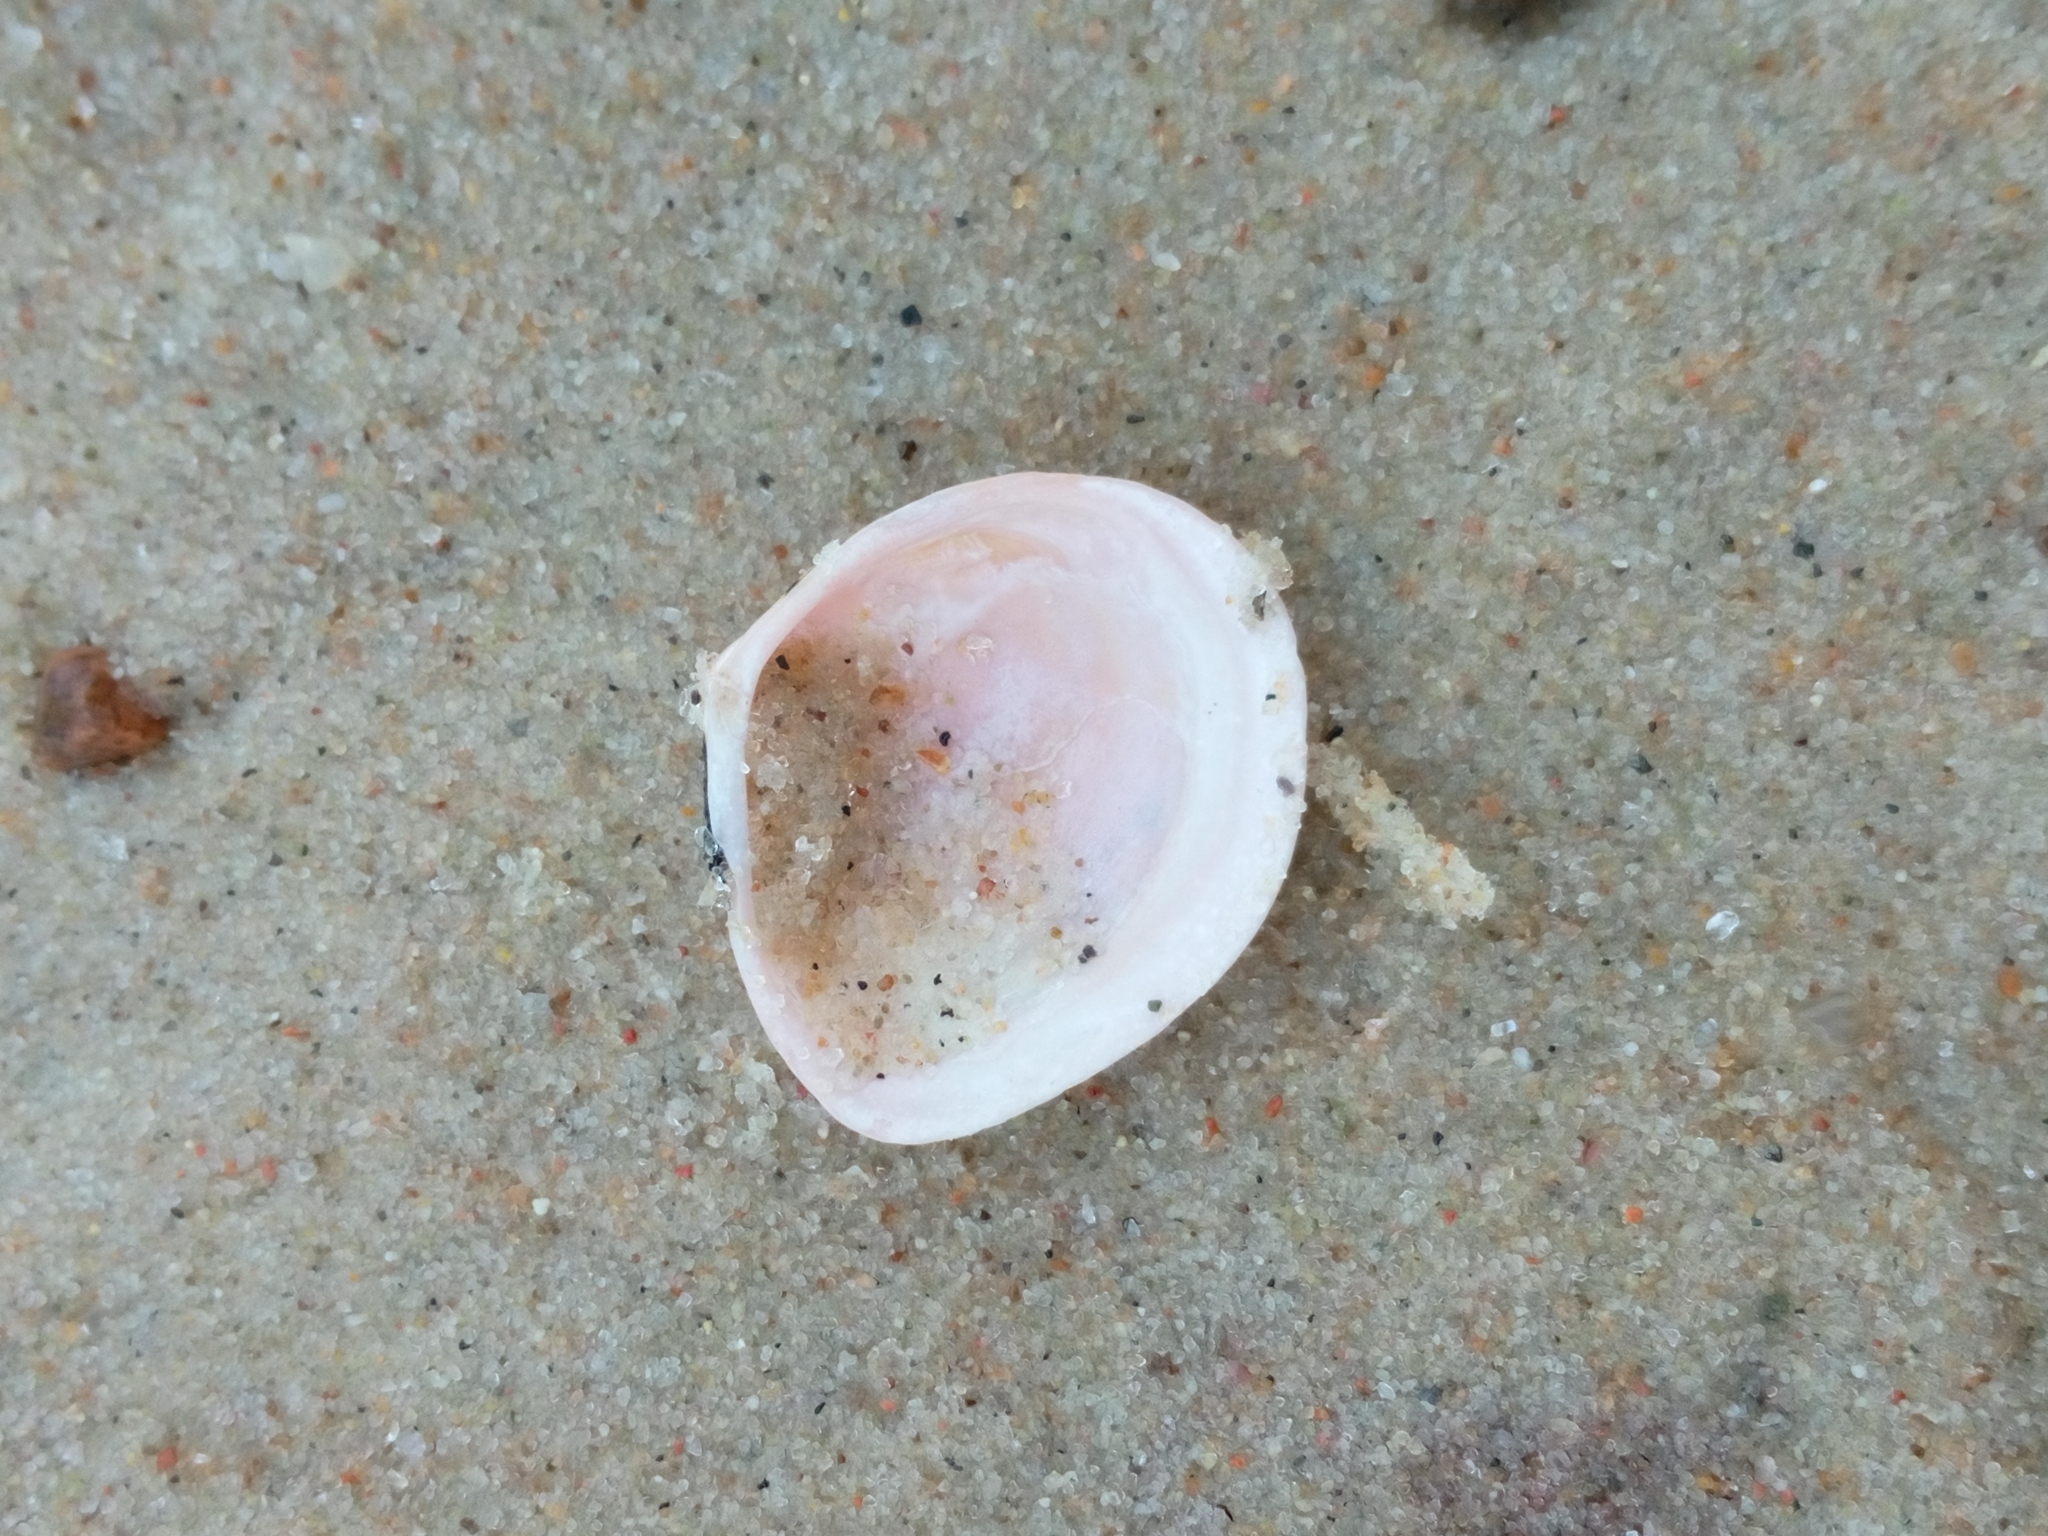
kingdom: Animalia
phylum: Mollusca
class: Bivalvia
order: Cardiida
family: Tellinidae
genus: Macoma
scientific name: Macoma balthica
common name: Baltic tellin
